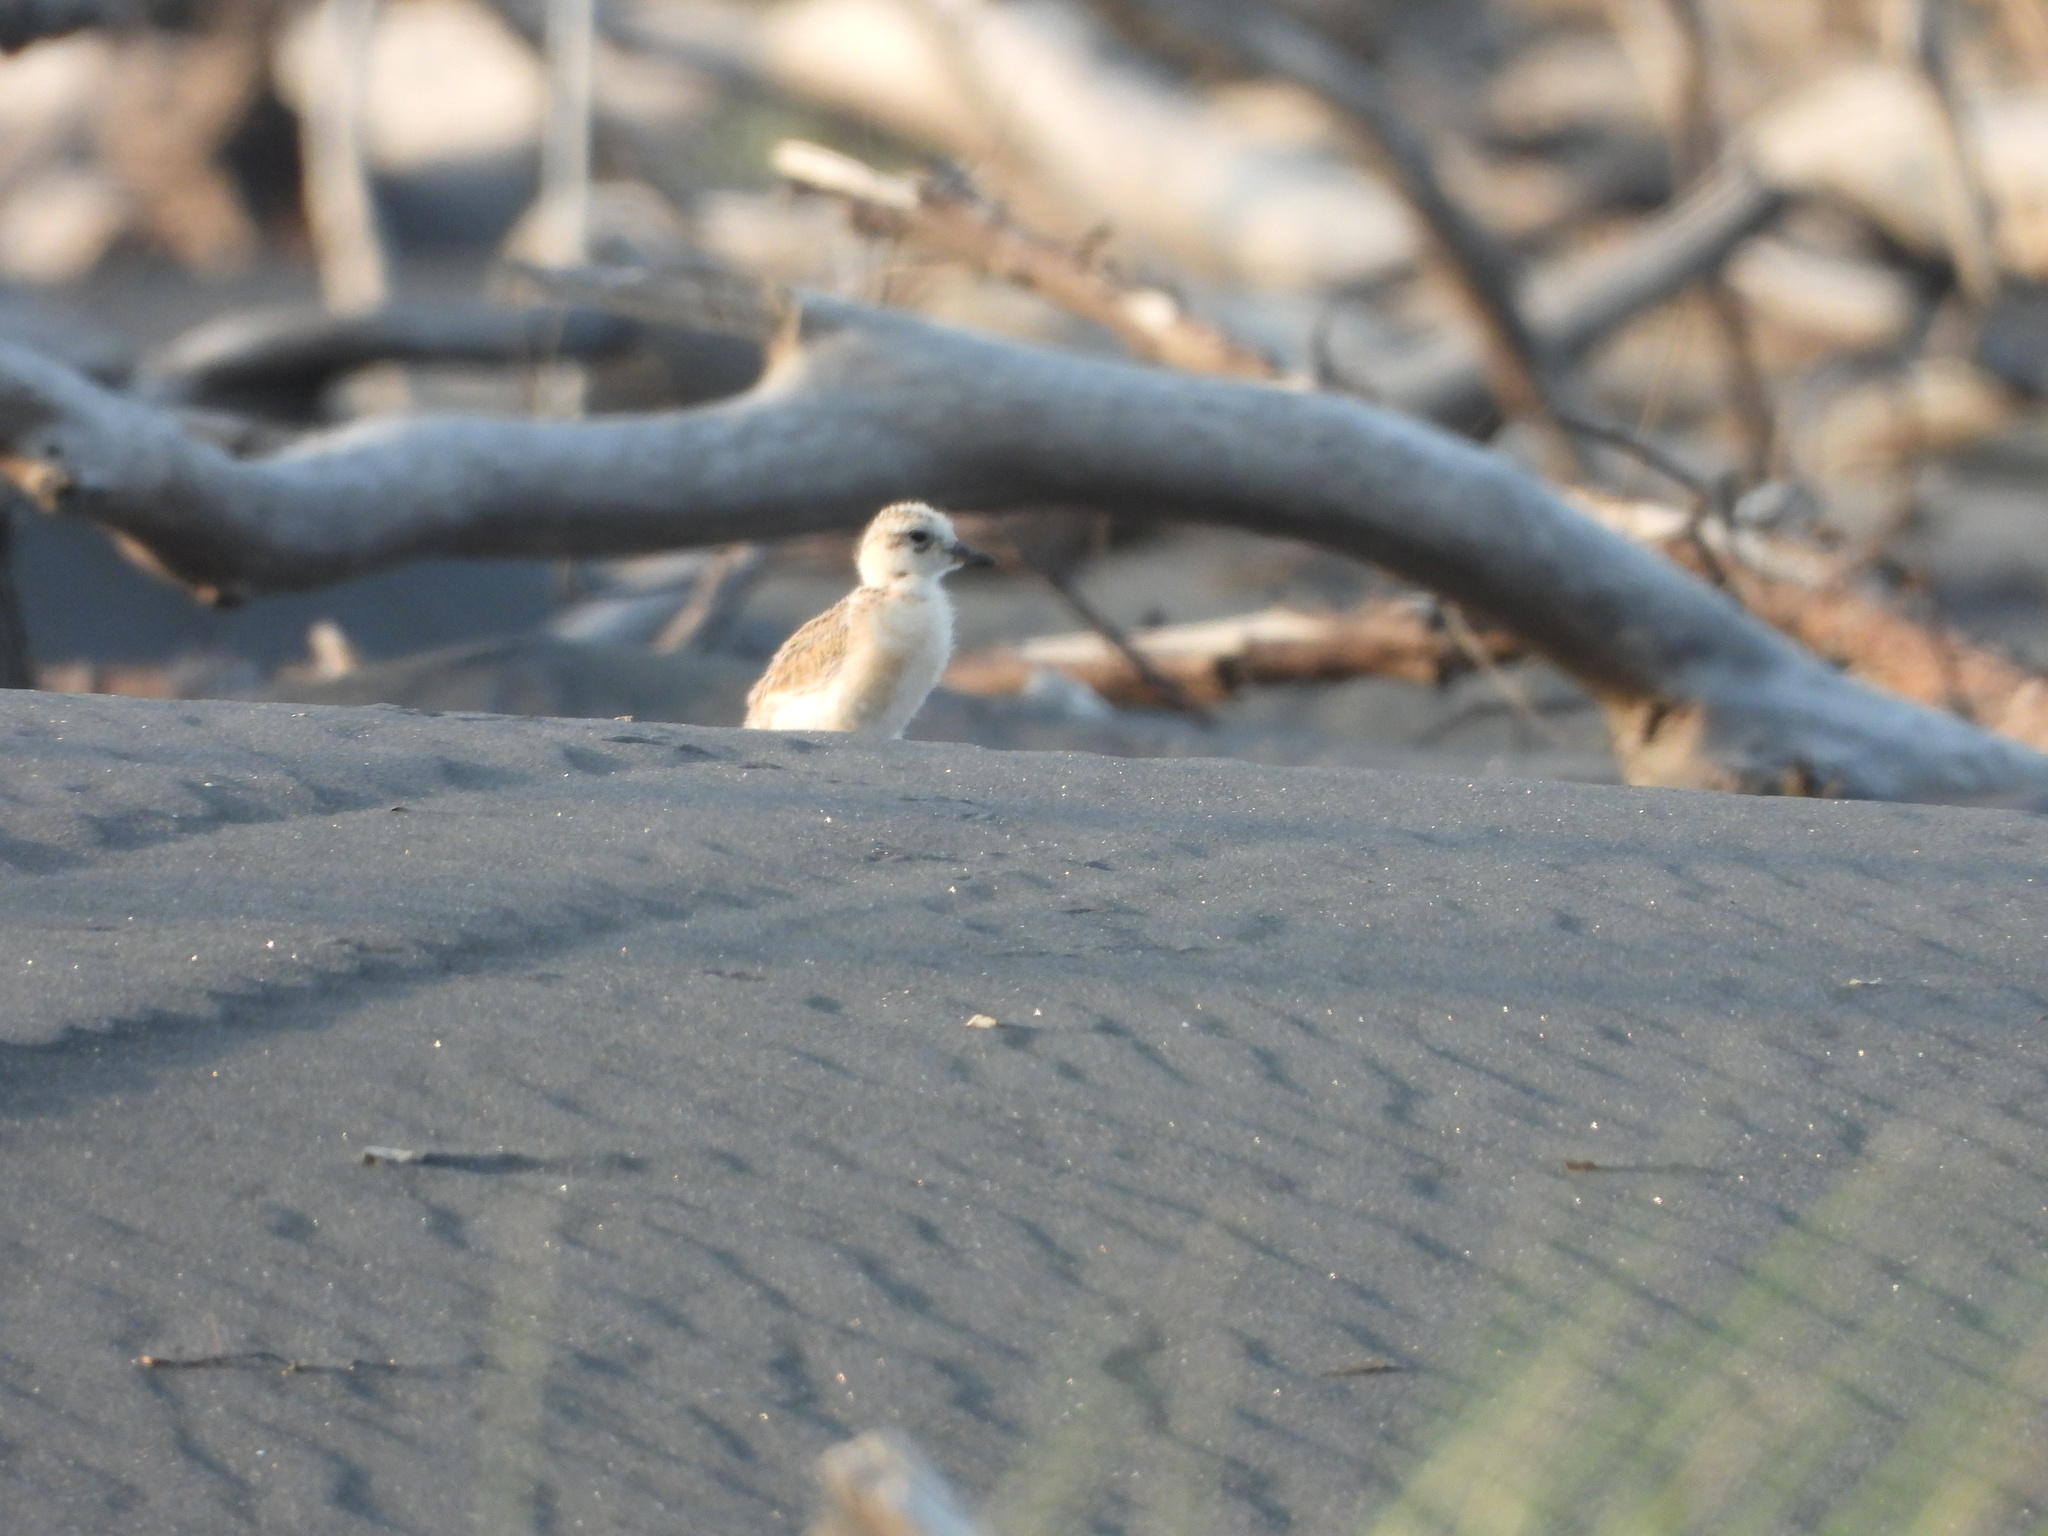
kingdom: Animalia
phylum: Chordata
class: Aves
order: Charadriiformes
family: Charadriidae
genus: Anarhynchus
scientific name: Anarhynchus
